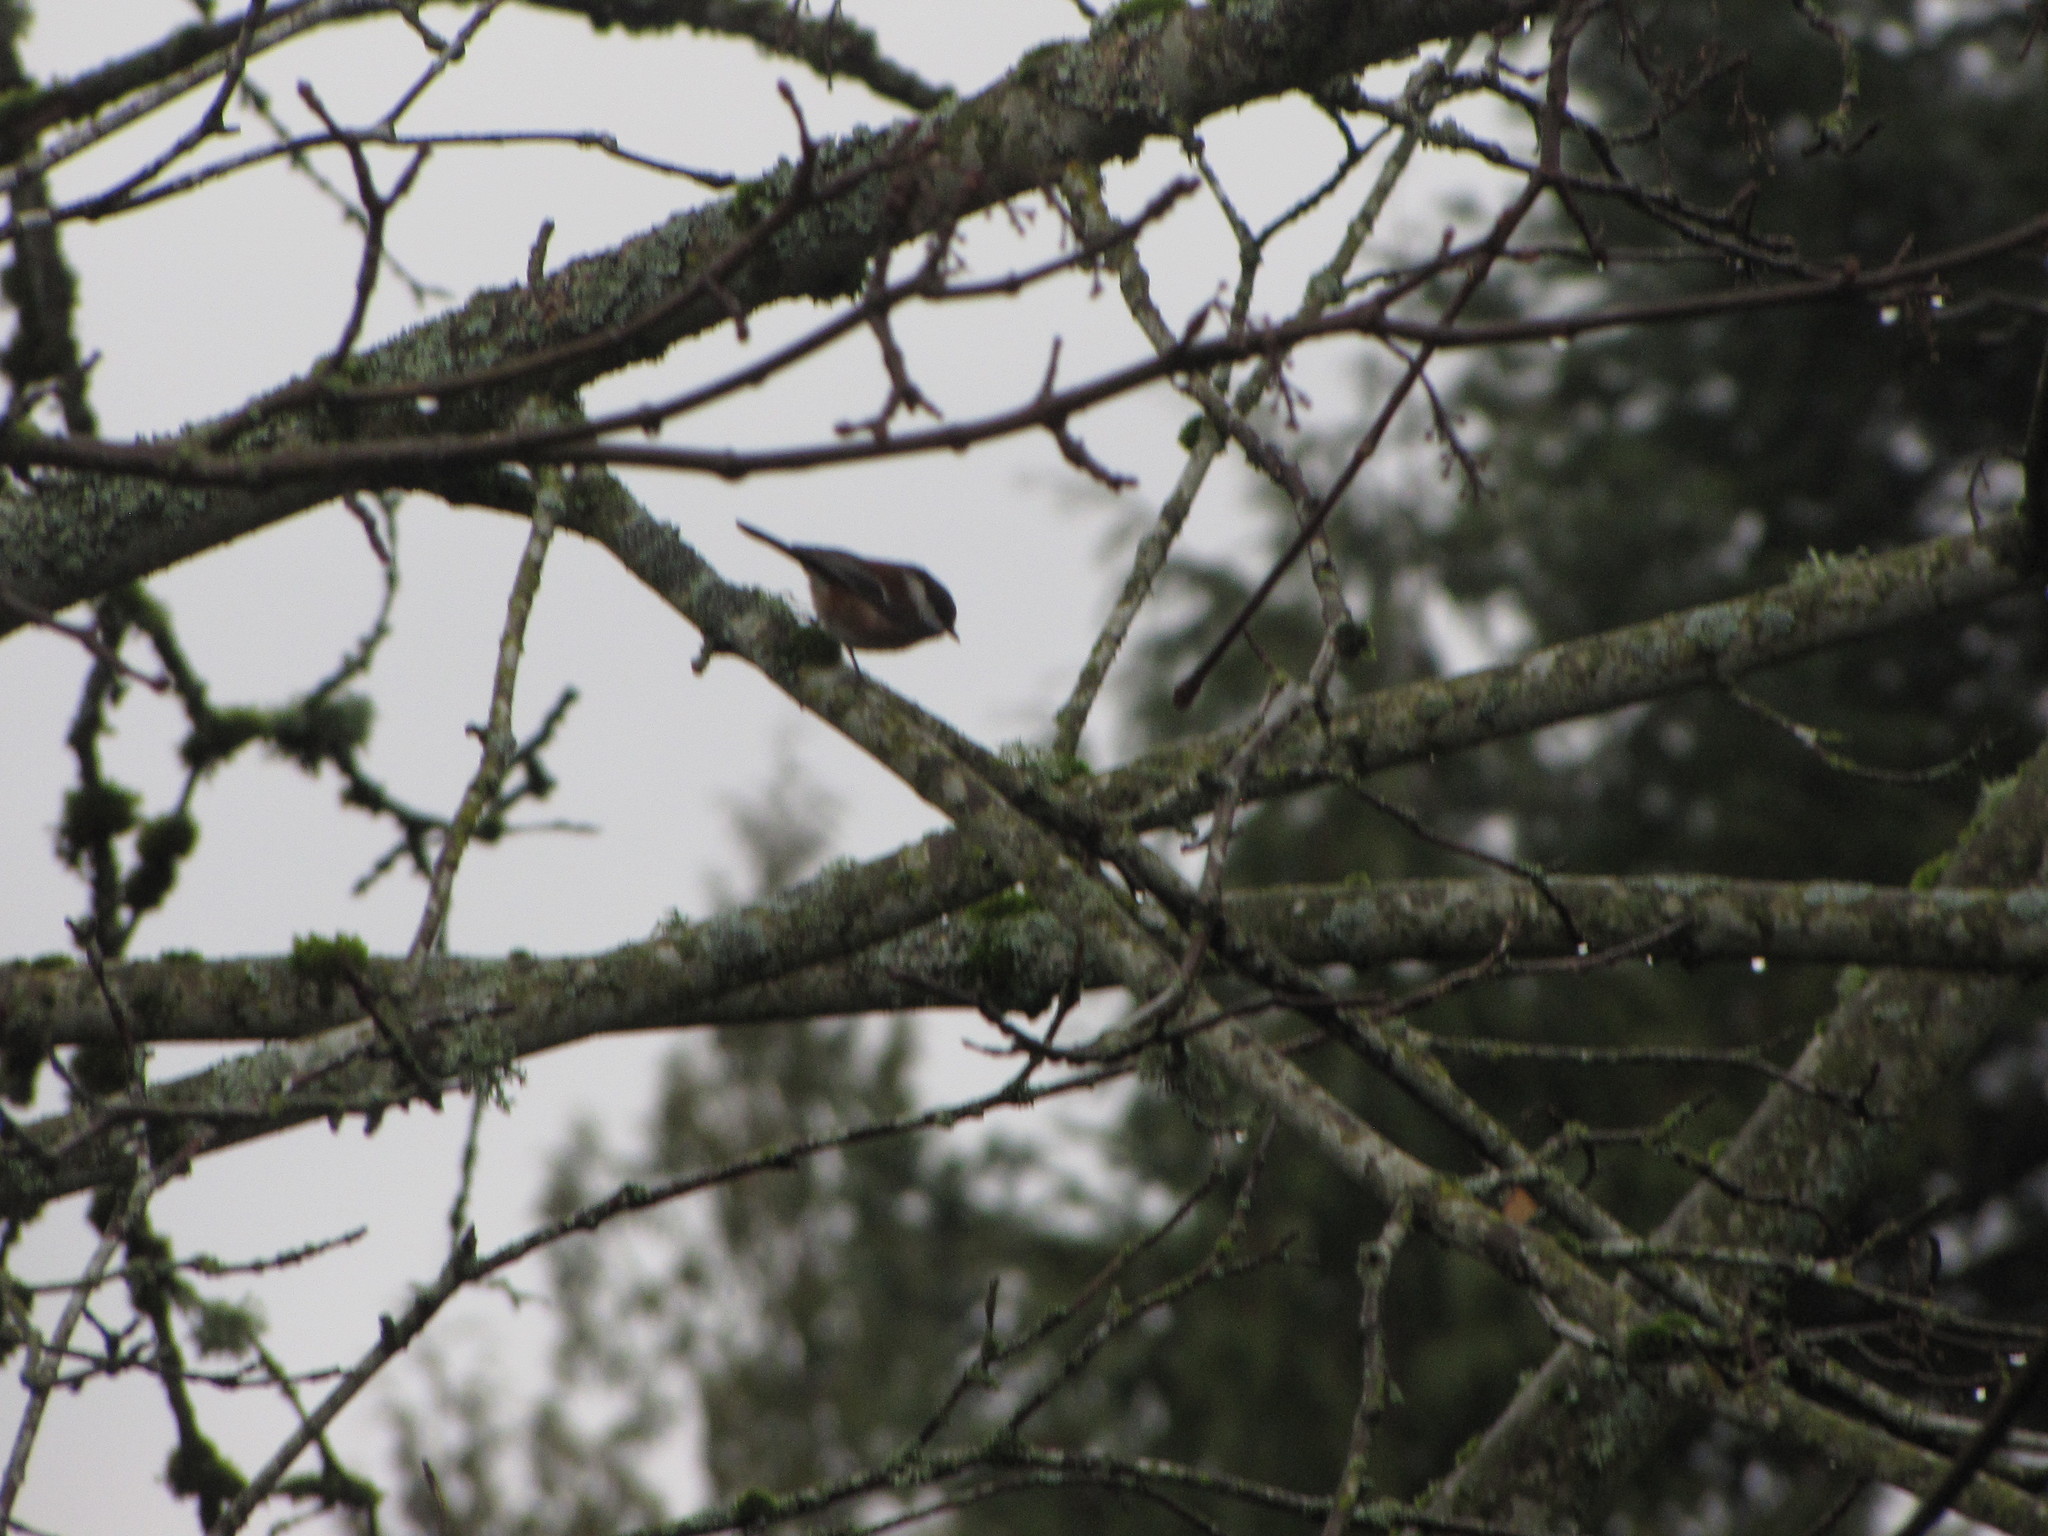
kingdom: Animalia
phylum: Chordata
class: Aves
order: Passeriformes
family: Paridae
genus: Poecile
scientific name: Poecile rufescens
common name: Chestnut-backed chickadee
